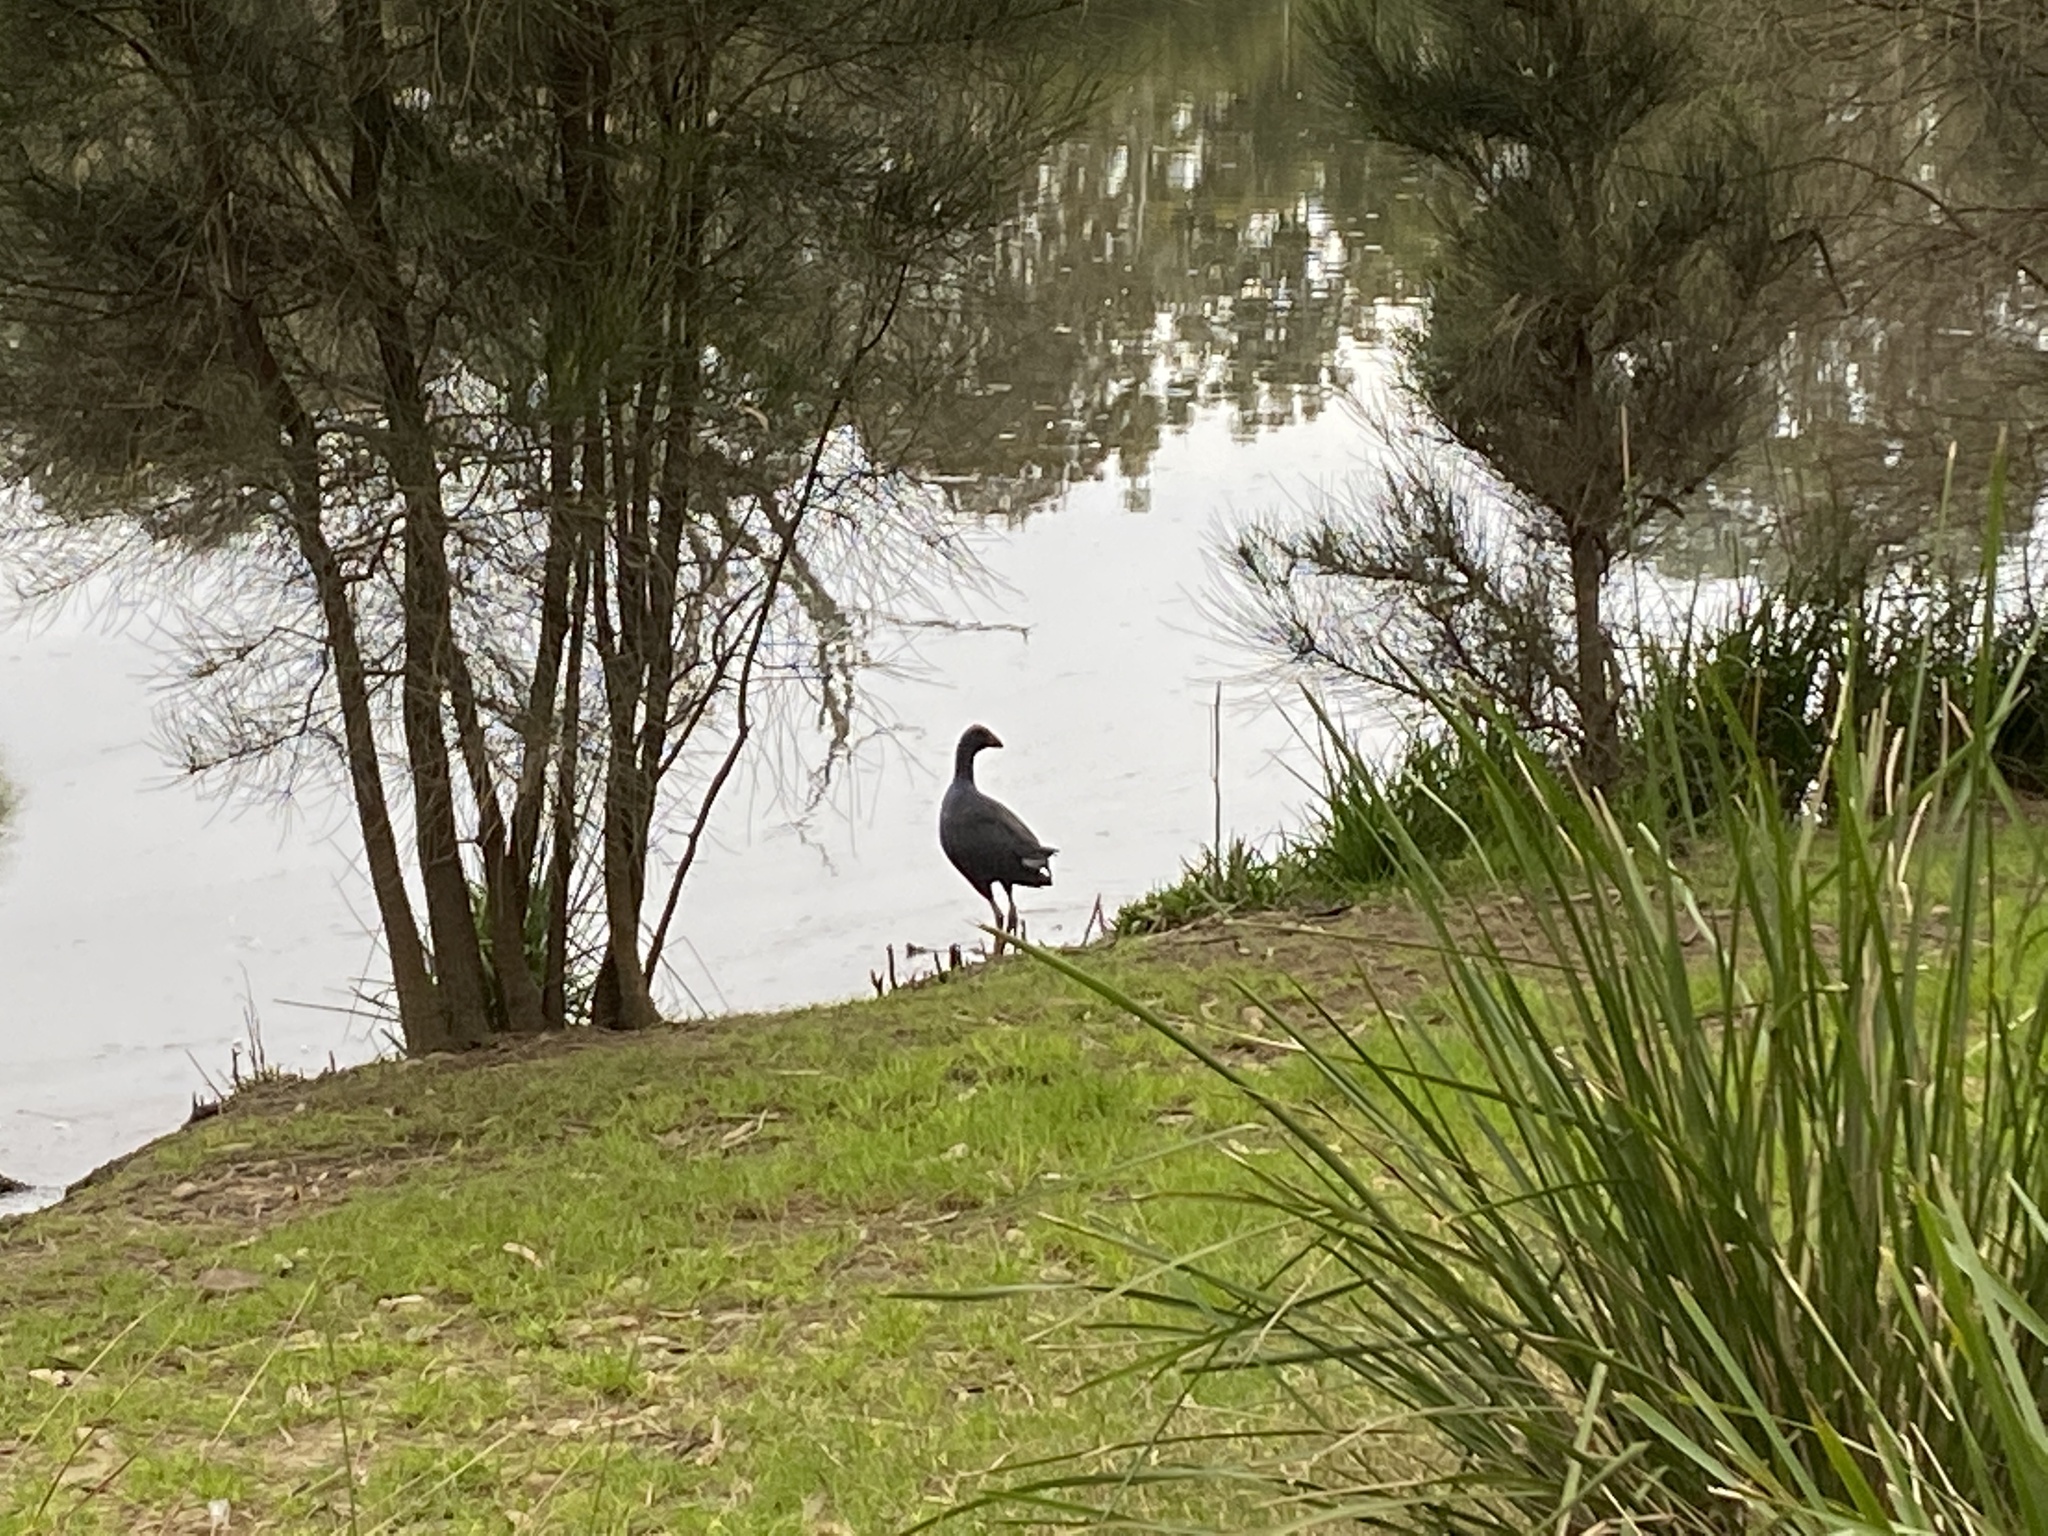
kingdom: Animalia
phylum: Chordata
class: Aves
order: Gruiformes
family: Rallidae
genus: Porphyrio
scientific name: Porphyrio melanotus
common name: Australasian swamphen
